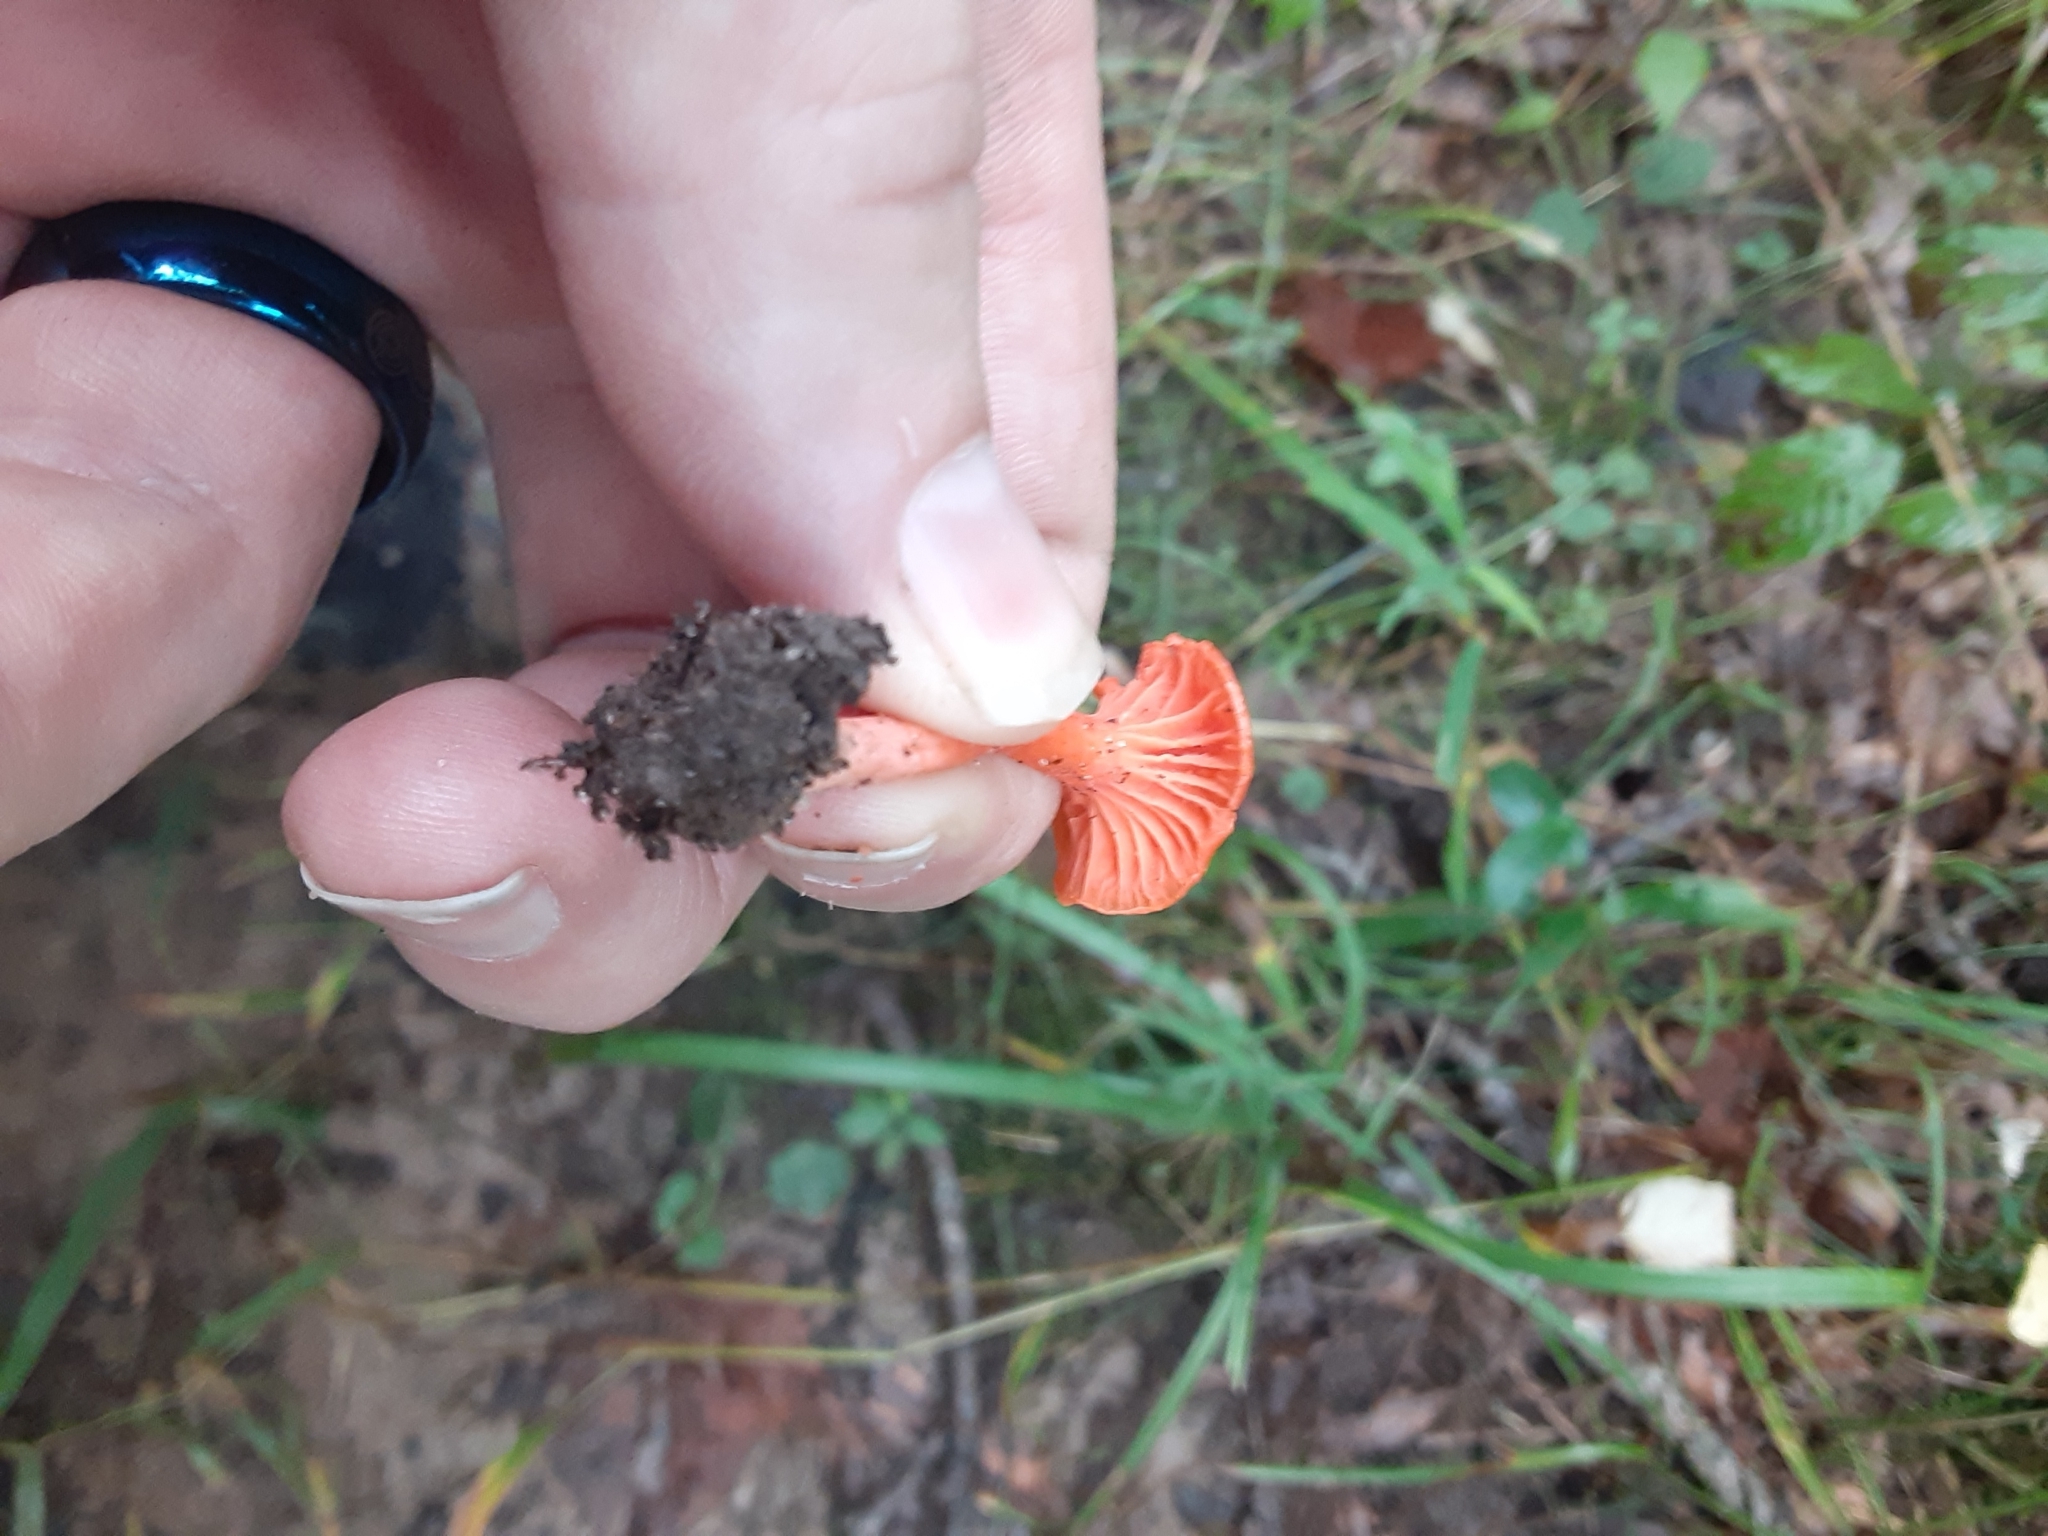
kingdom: Fungi
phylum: Basidiomycota
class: Agaricomycetes
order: Cantharellales
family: Hydnaceae
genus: Cantharellus
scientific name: Cantharellus cinnabarinus
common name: Cinnabar chanterelle
